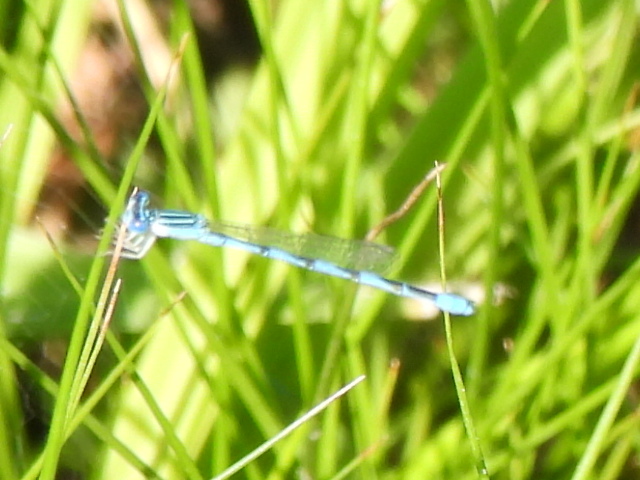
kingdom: Animalia
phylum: Arthropoda
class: Insecta
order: Odonata
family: Coenagrionidae
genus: Enallagma
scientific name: Enallagma basidens
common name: Double-striped bluet
